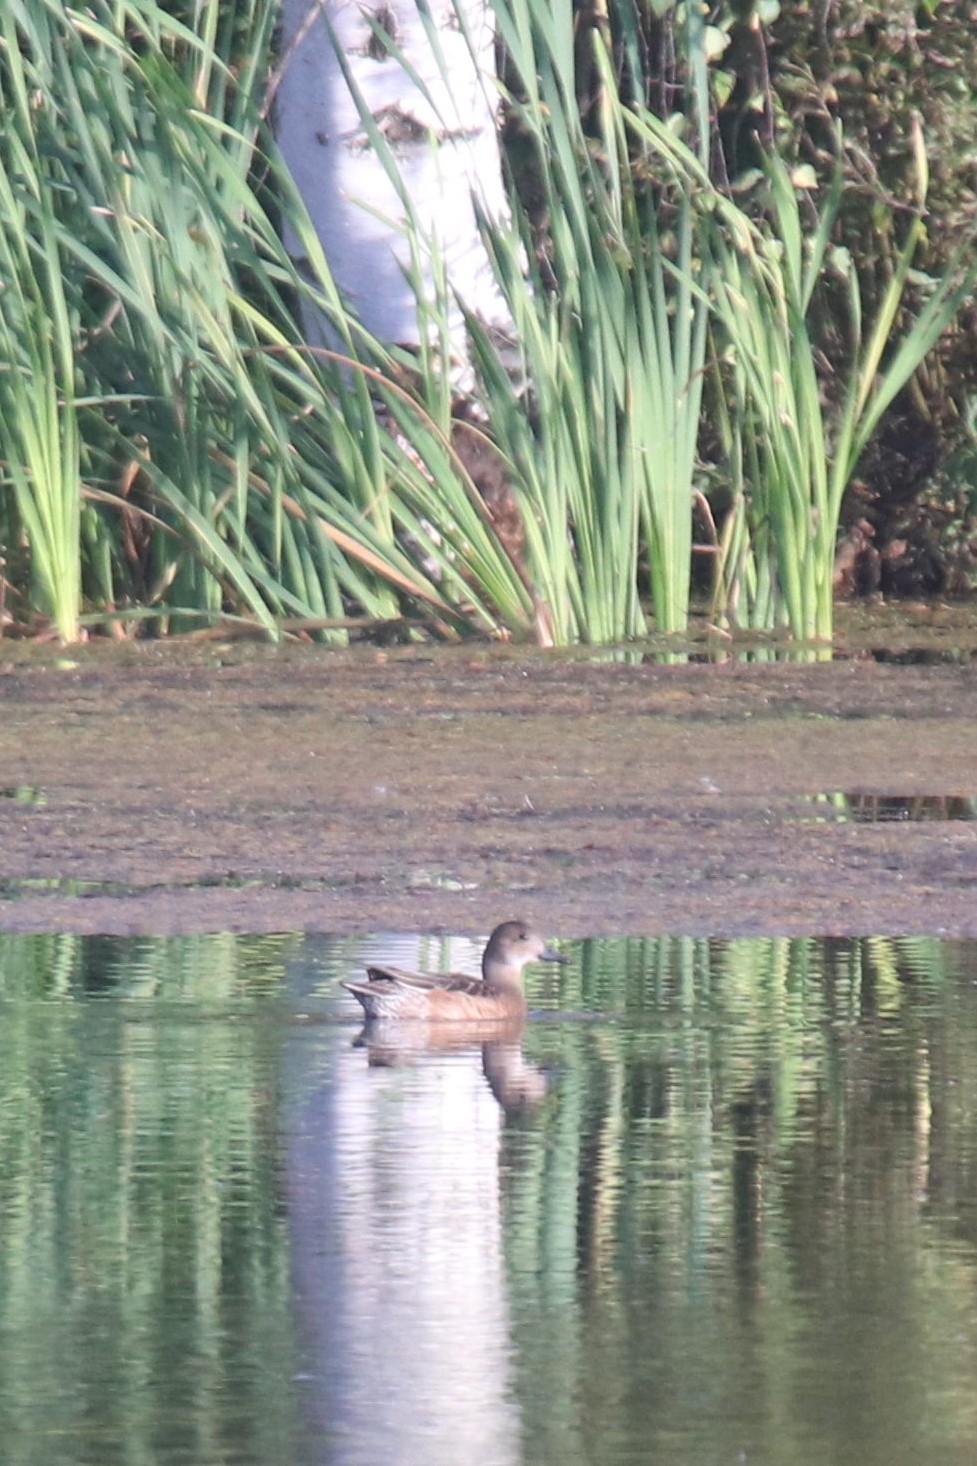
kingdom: Animalia
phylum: Chordata
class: Aves
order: Anseriformes
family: Anatidae
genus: Mareca
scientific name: Mareca penelope
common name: Eurasian wigeon
